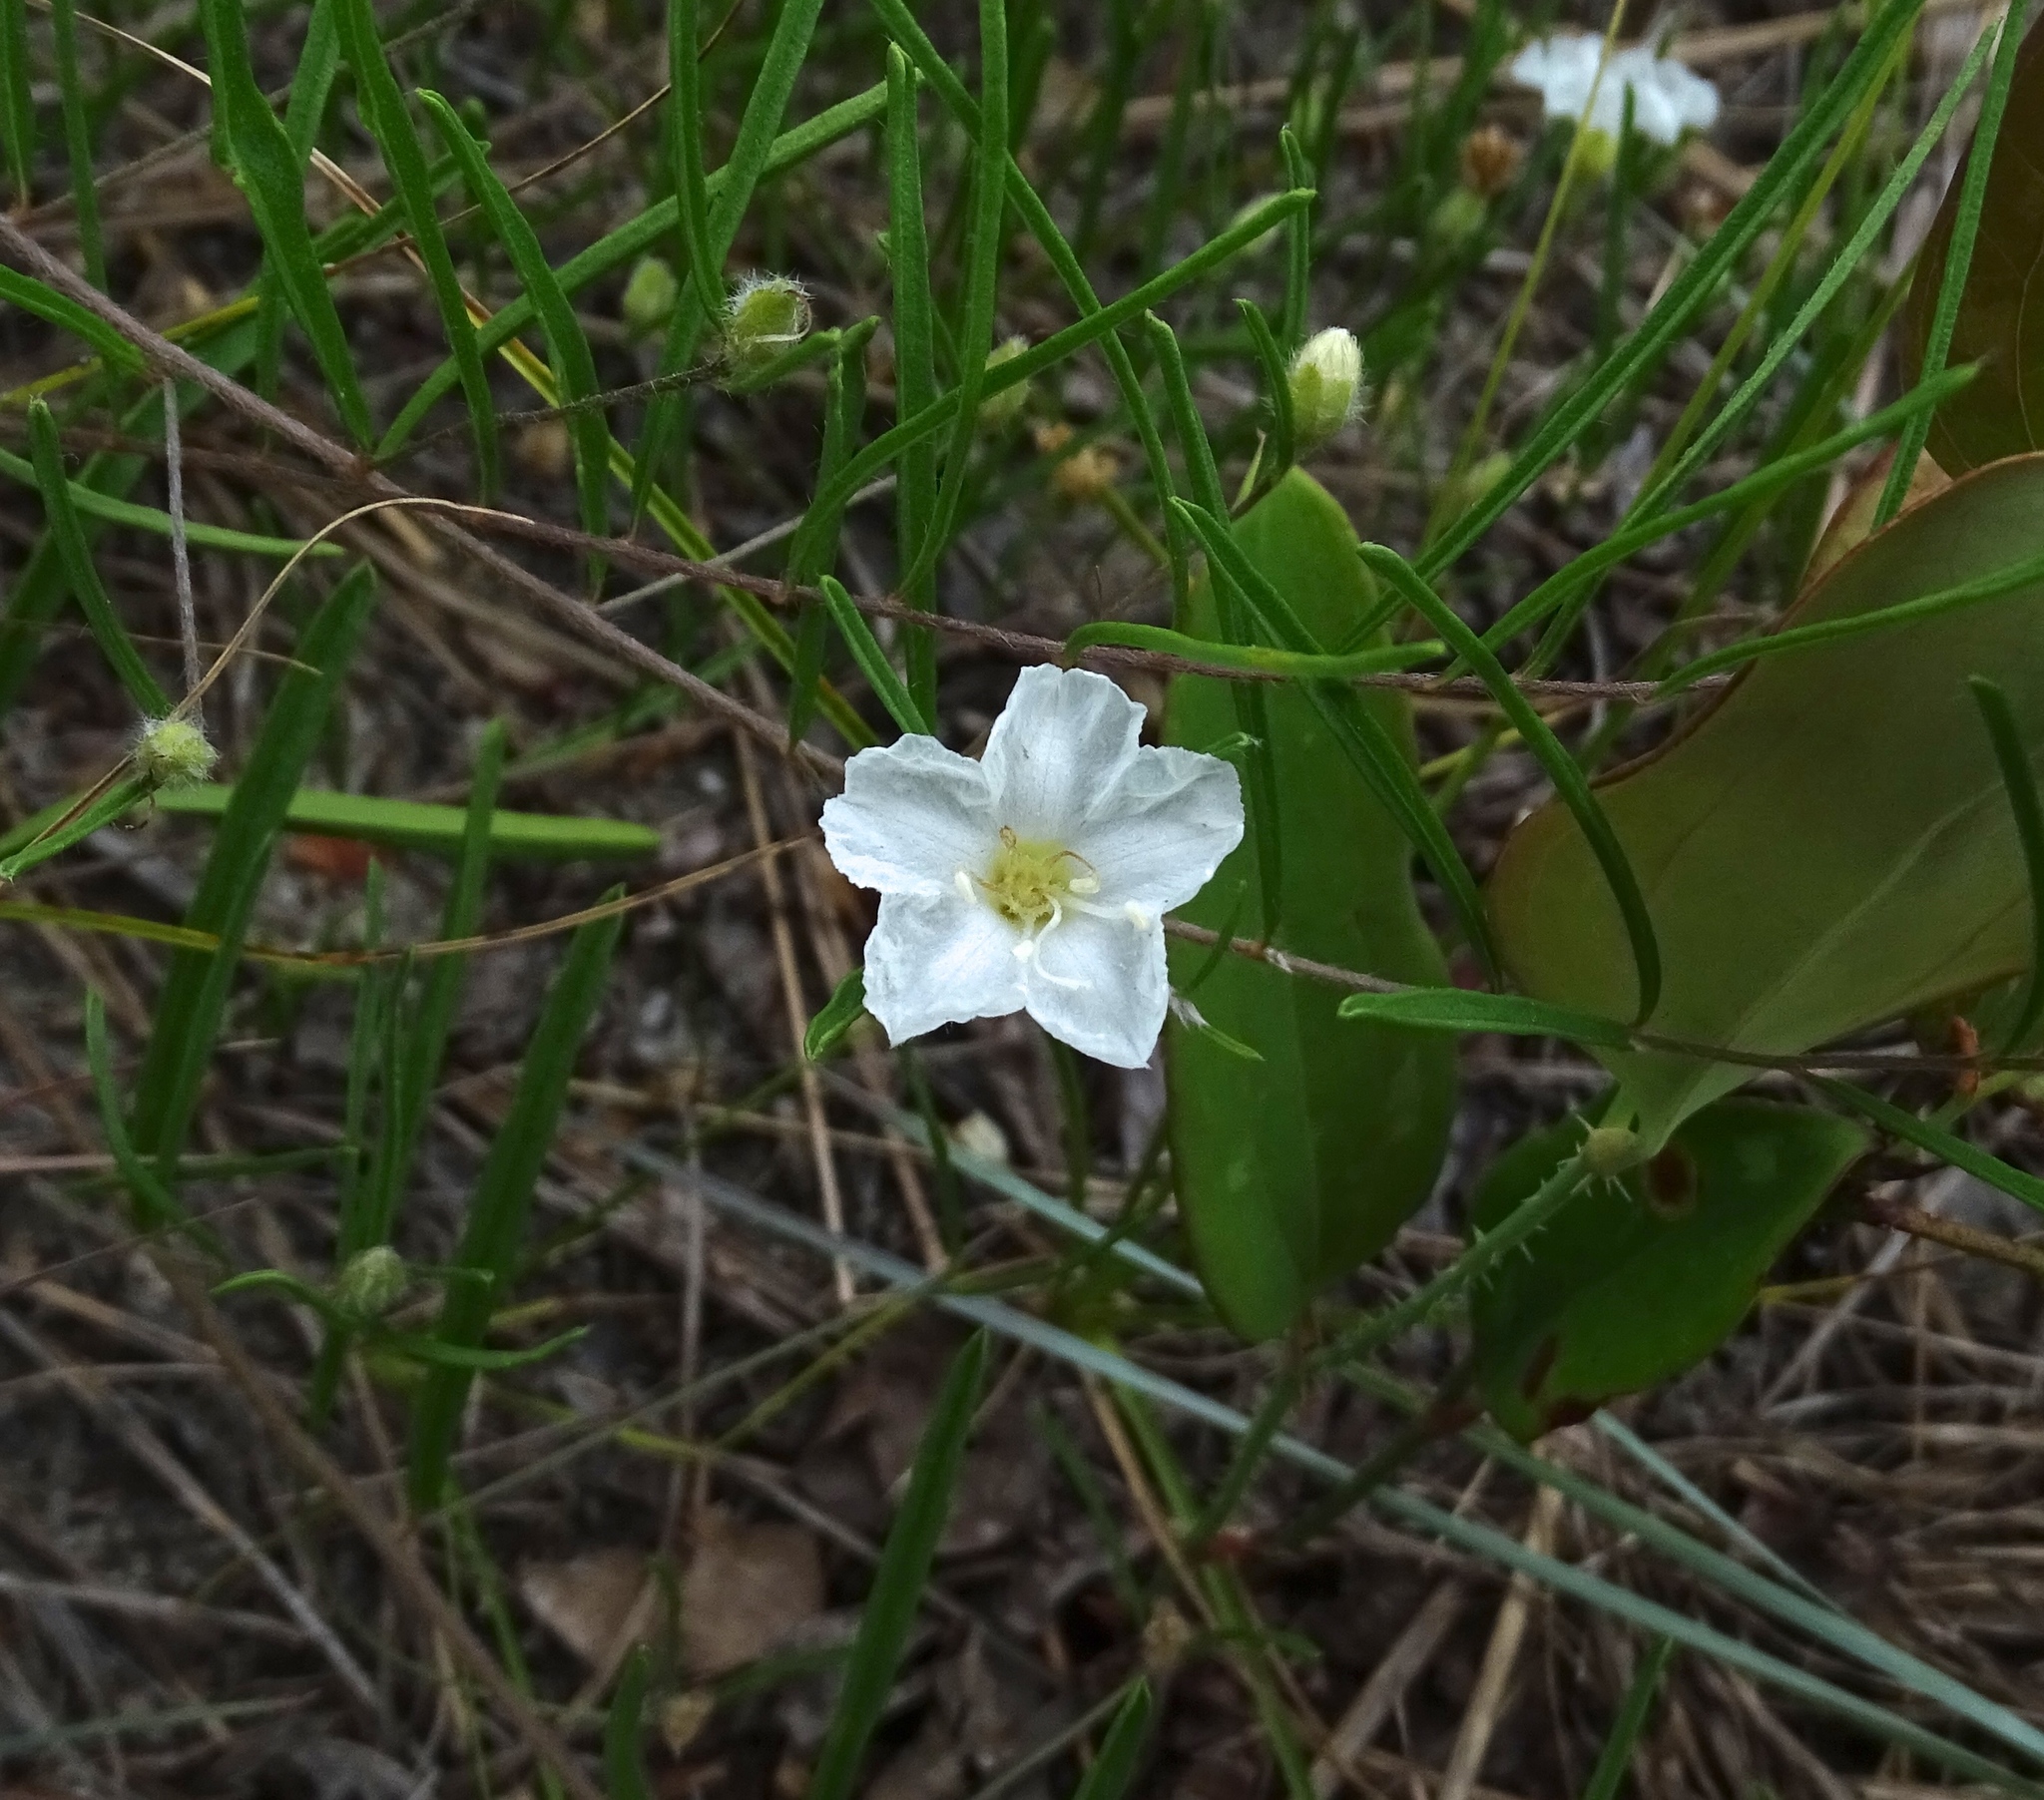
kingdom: Plantae
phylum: Tracheophyta
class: Magnoliopsida
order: Solanales
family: Convolvulaceae
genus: Stylisma
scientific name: Stylisma pickeringii
